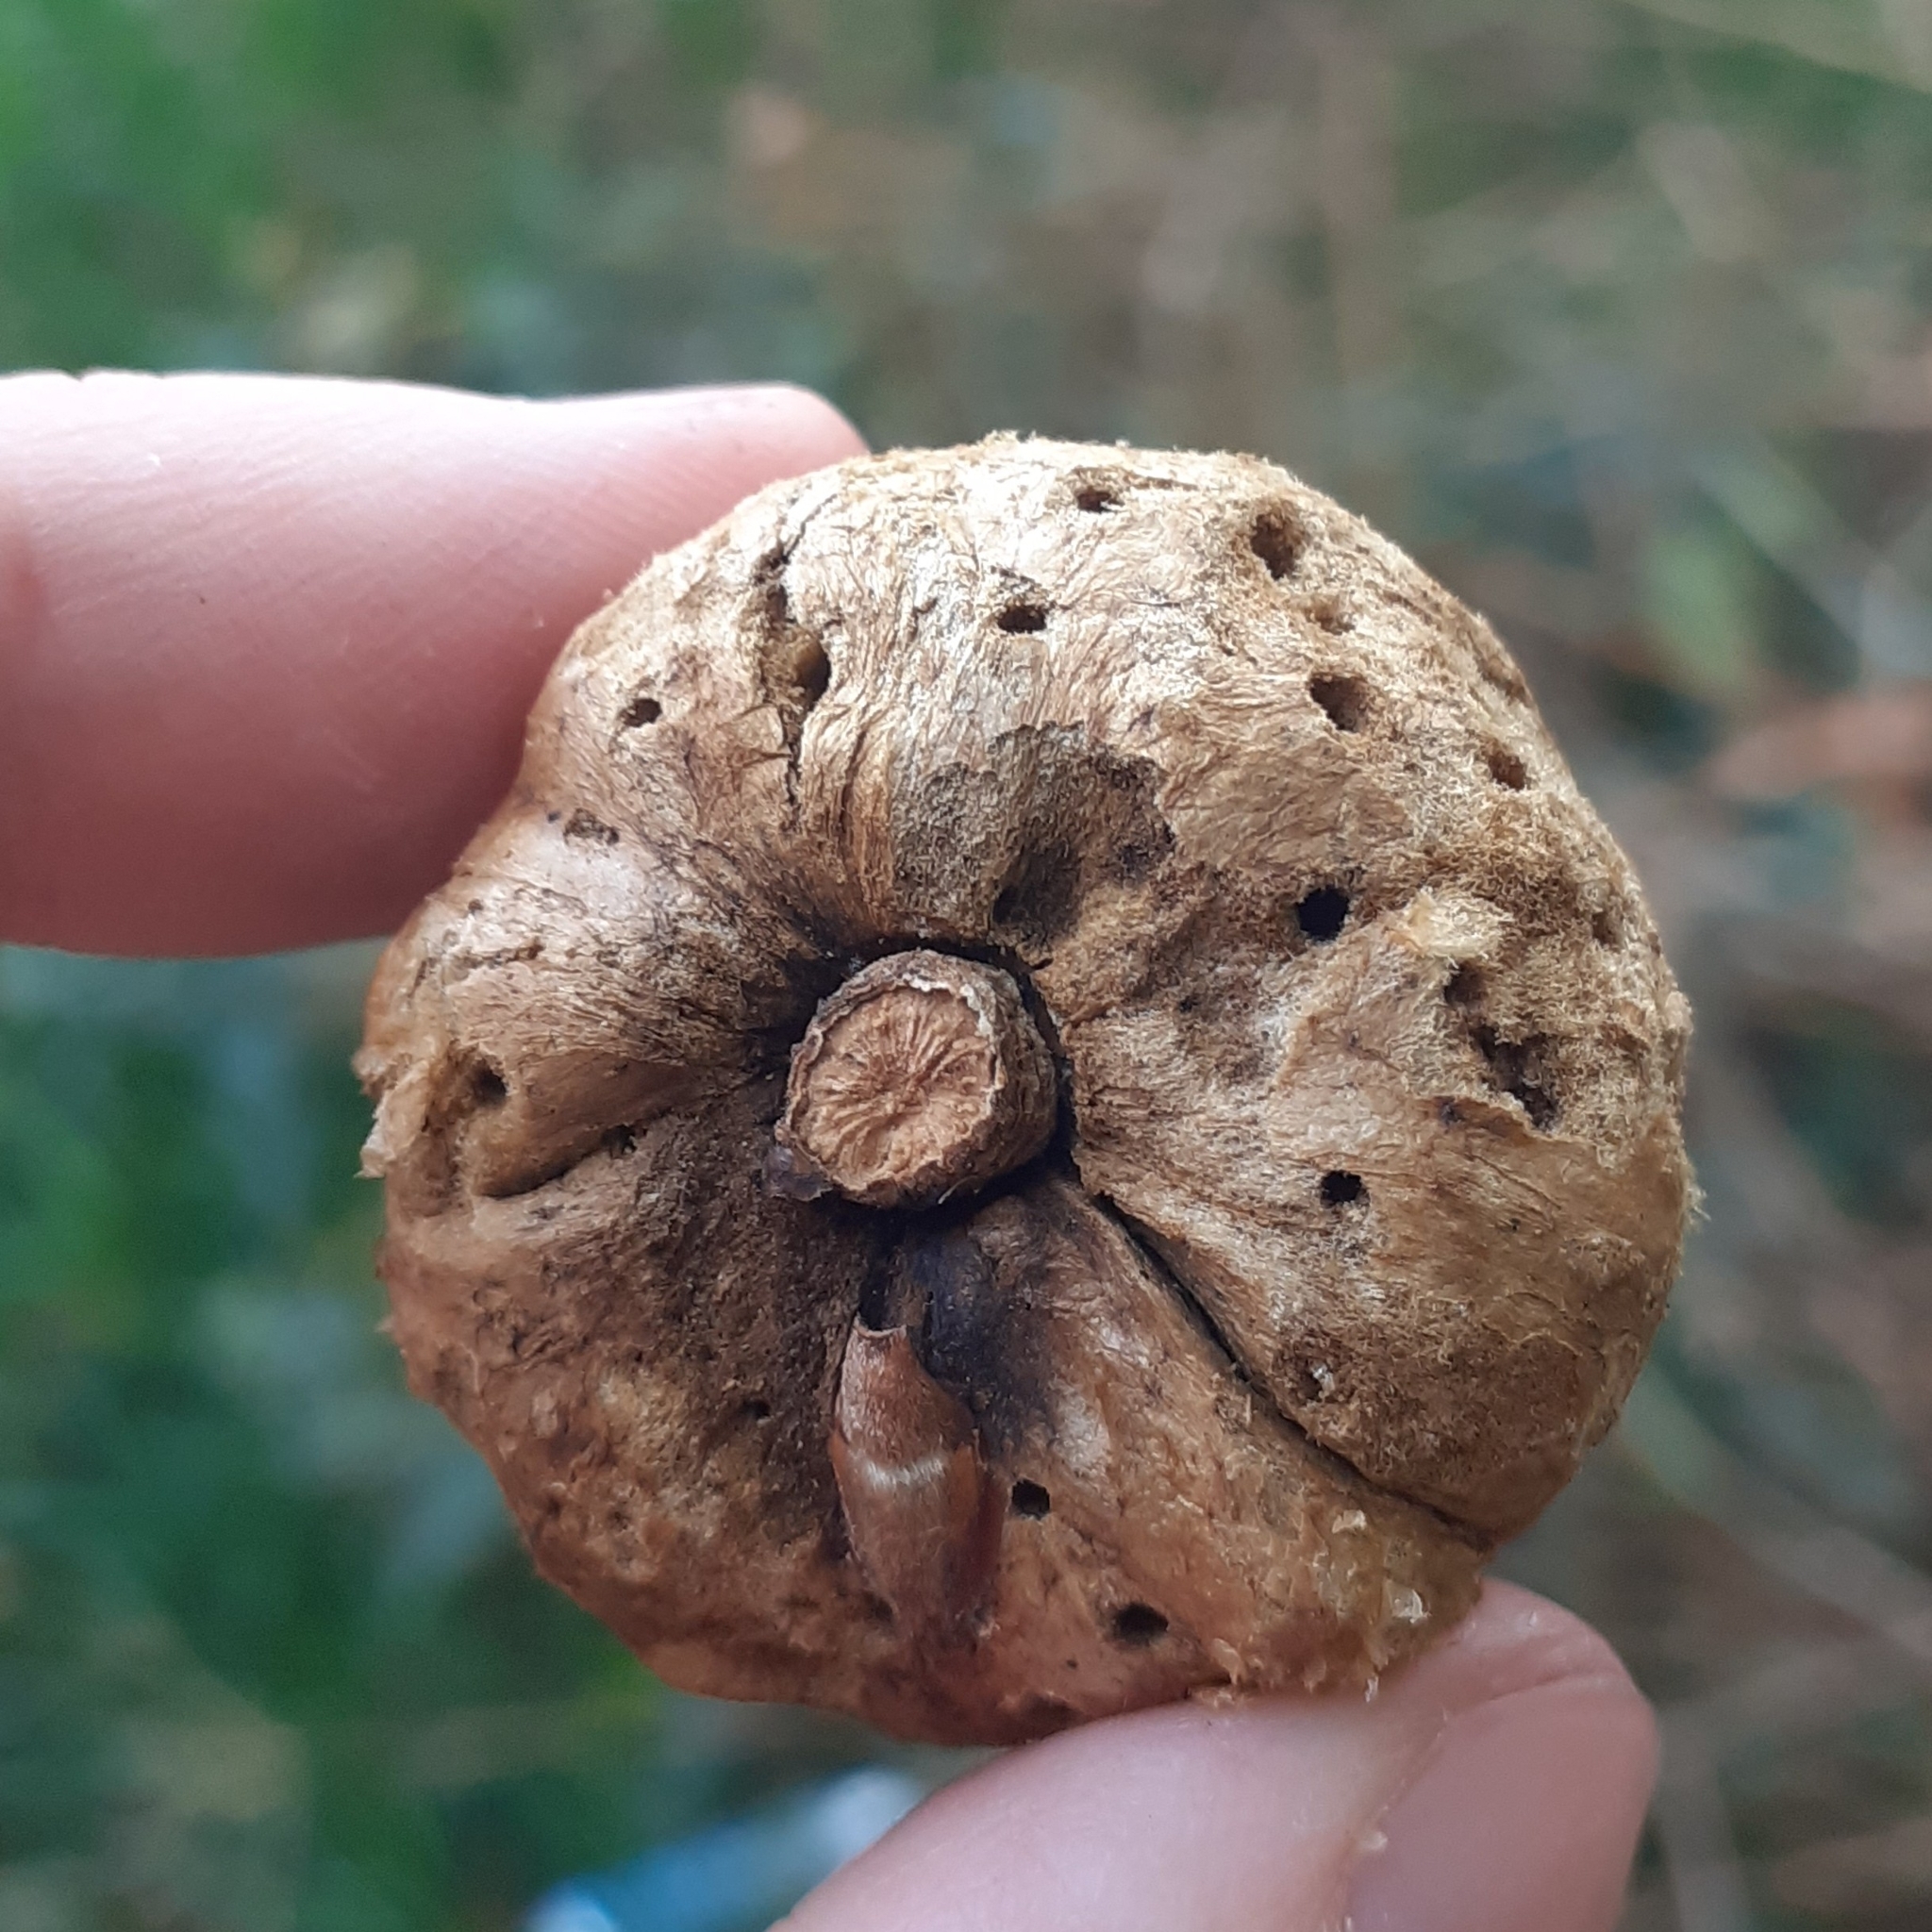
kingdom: Animalia
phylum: Arthropoda
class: Insecta
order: Hymenoptera
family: Cynipidae
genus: Biorhiza
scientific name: Biorhiza pallida
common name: Oak apple
